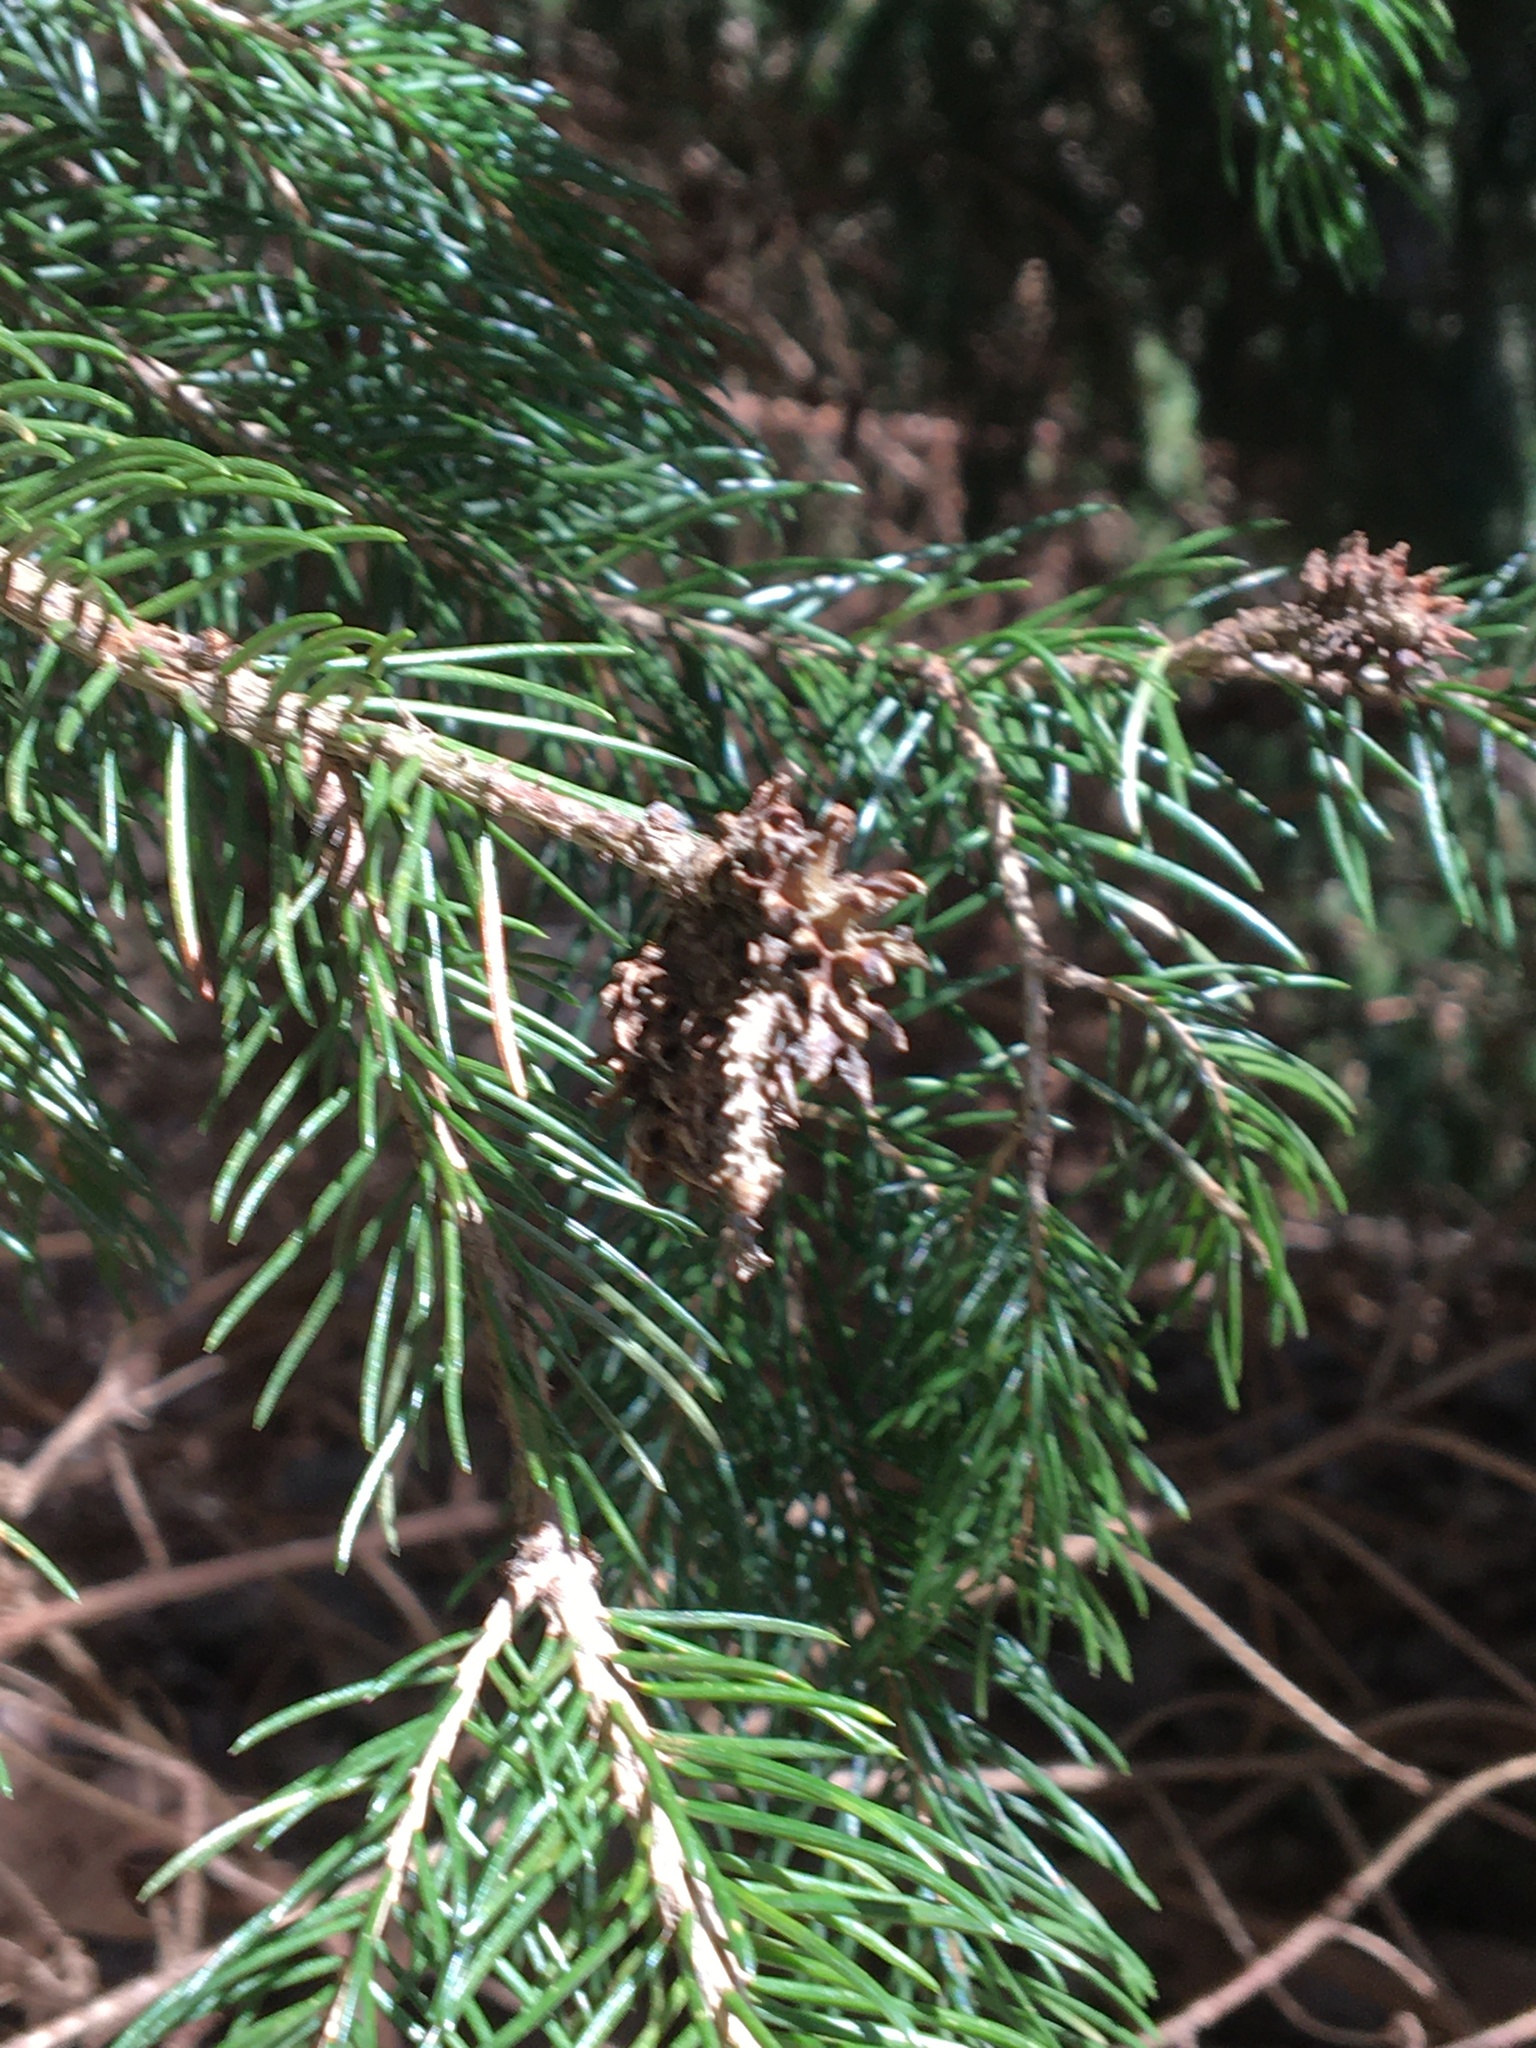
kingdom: Animalia
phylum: Arthropoda
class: Insecta
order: Hemiptera
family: Adelgidae
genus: Adelges
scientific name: Adelges abietis
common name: Eastern spruce gall adelgid
